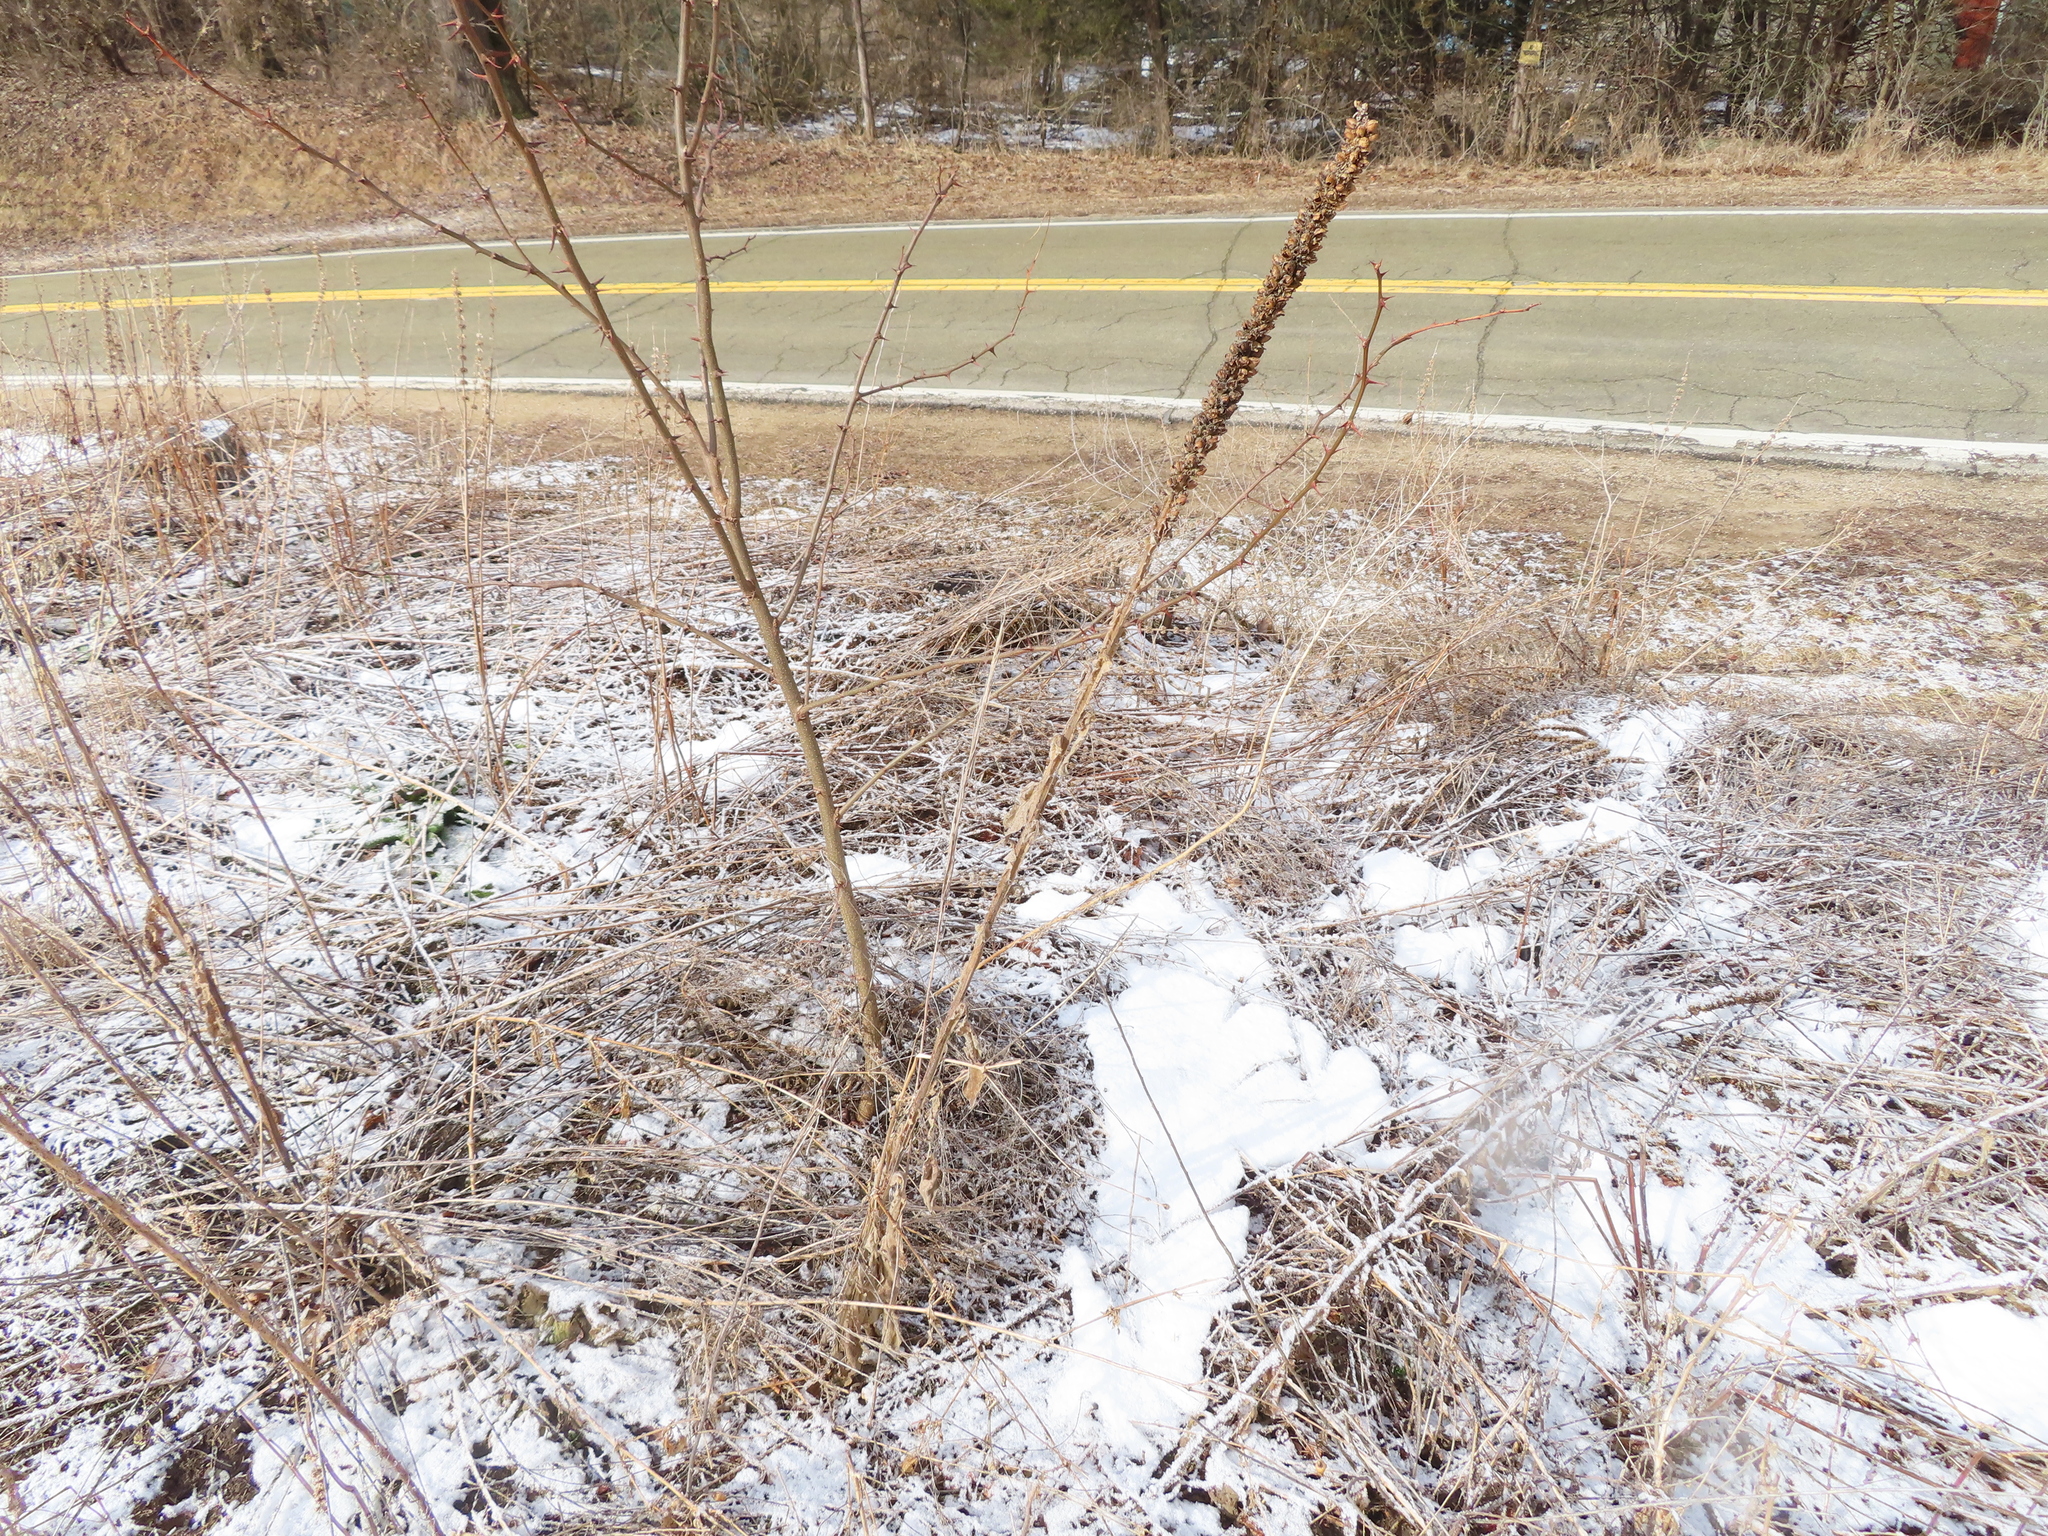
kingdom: Plantae
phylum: Tracheophyta
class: Magnoliopsida
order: Lamiales
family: Scrophulariaceae
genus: Verbascum
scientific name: Verbascum thapsus
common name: Common mullein
